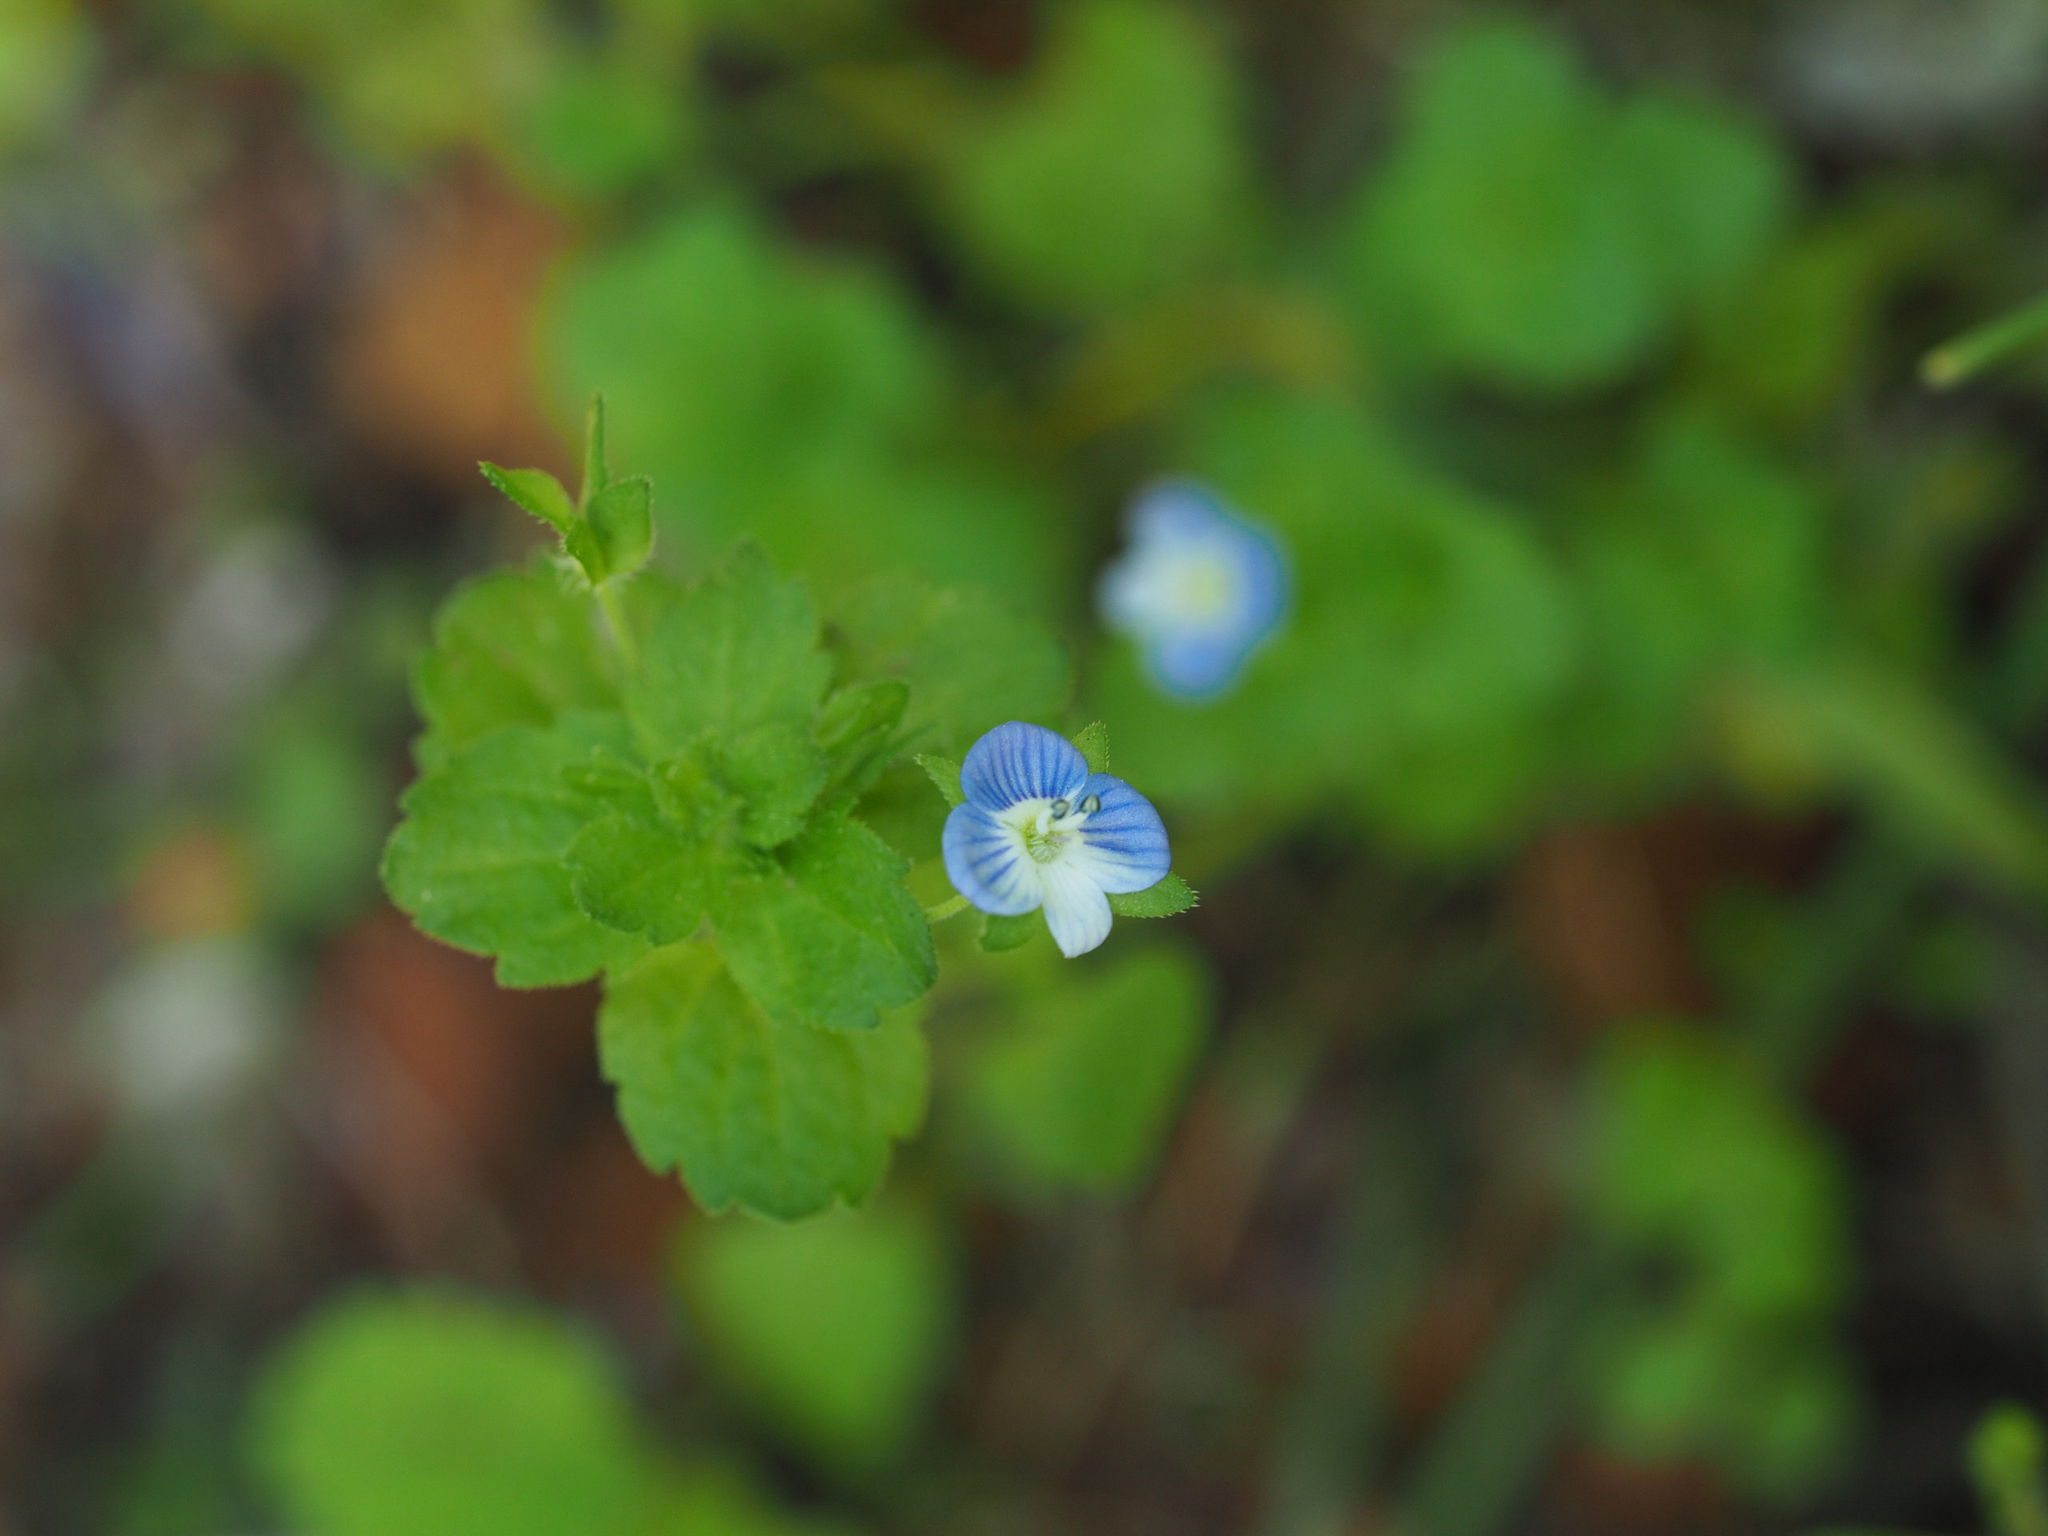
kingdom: Plantae
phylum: Tracheophyta
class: Magnoliopsida
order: Lamiales
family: Plantaginaceae
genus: Veronica
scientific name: Veronica persica
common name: Common field-speedwell
